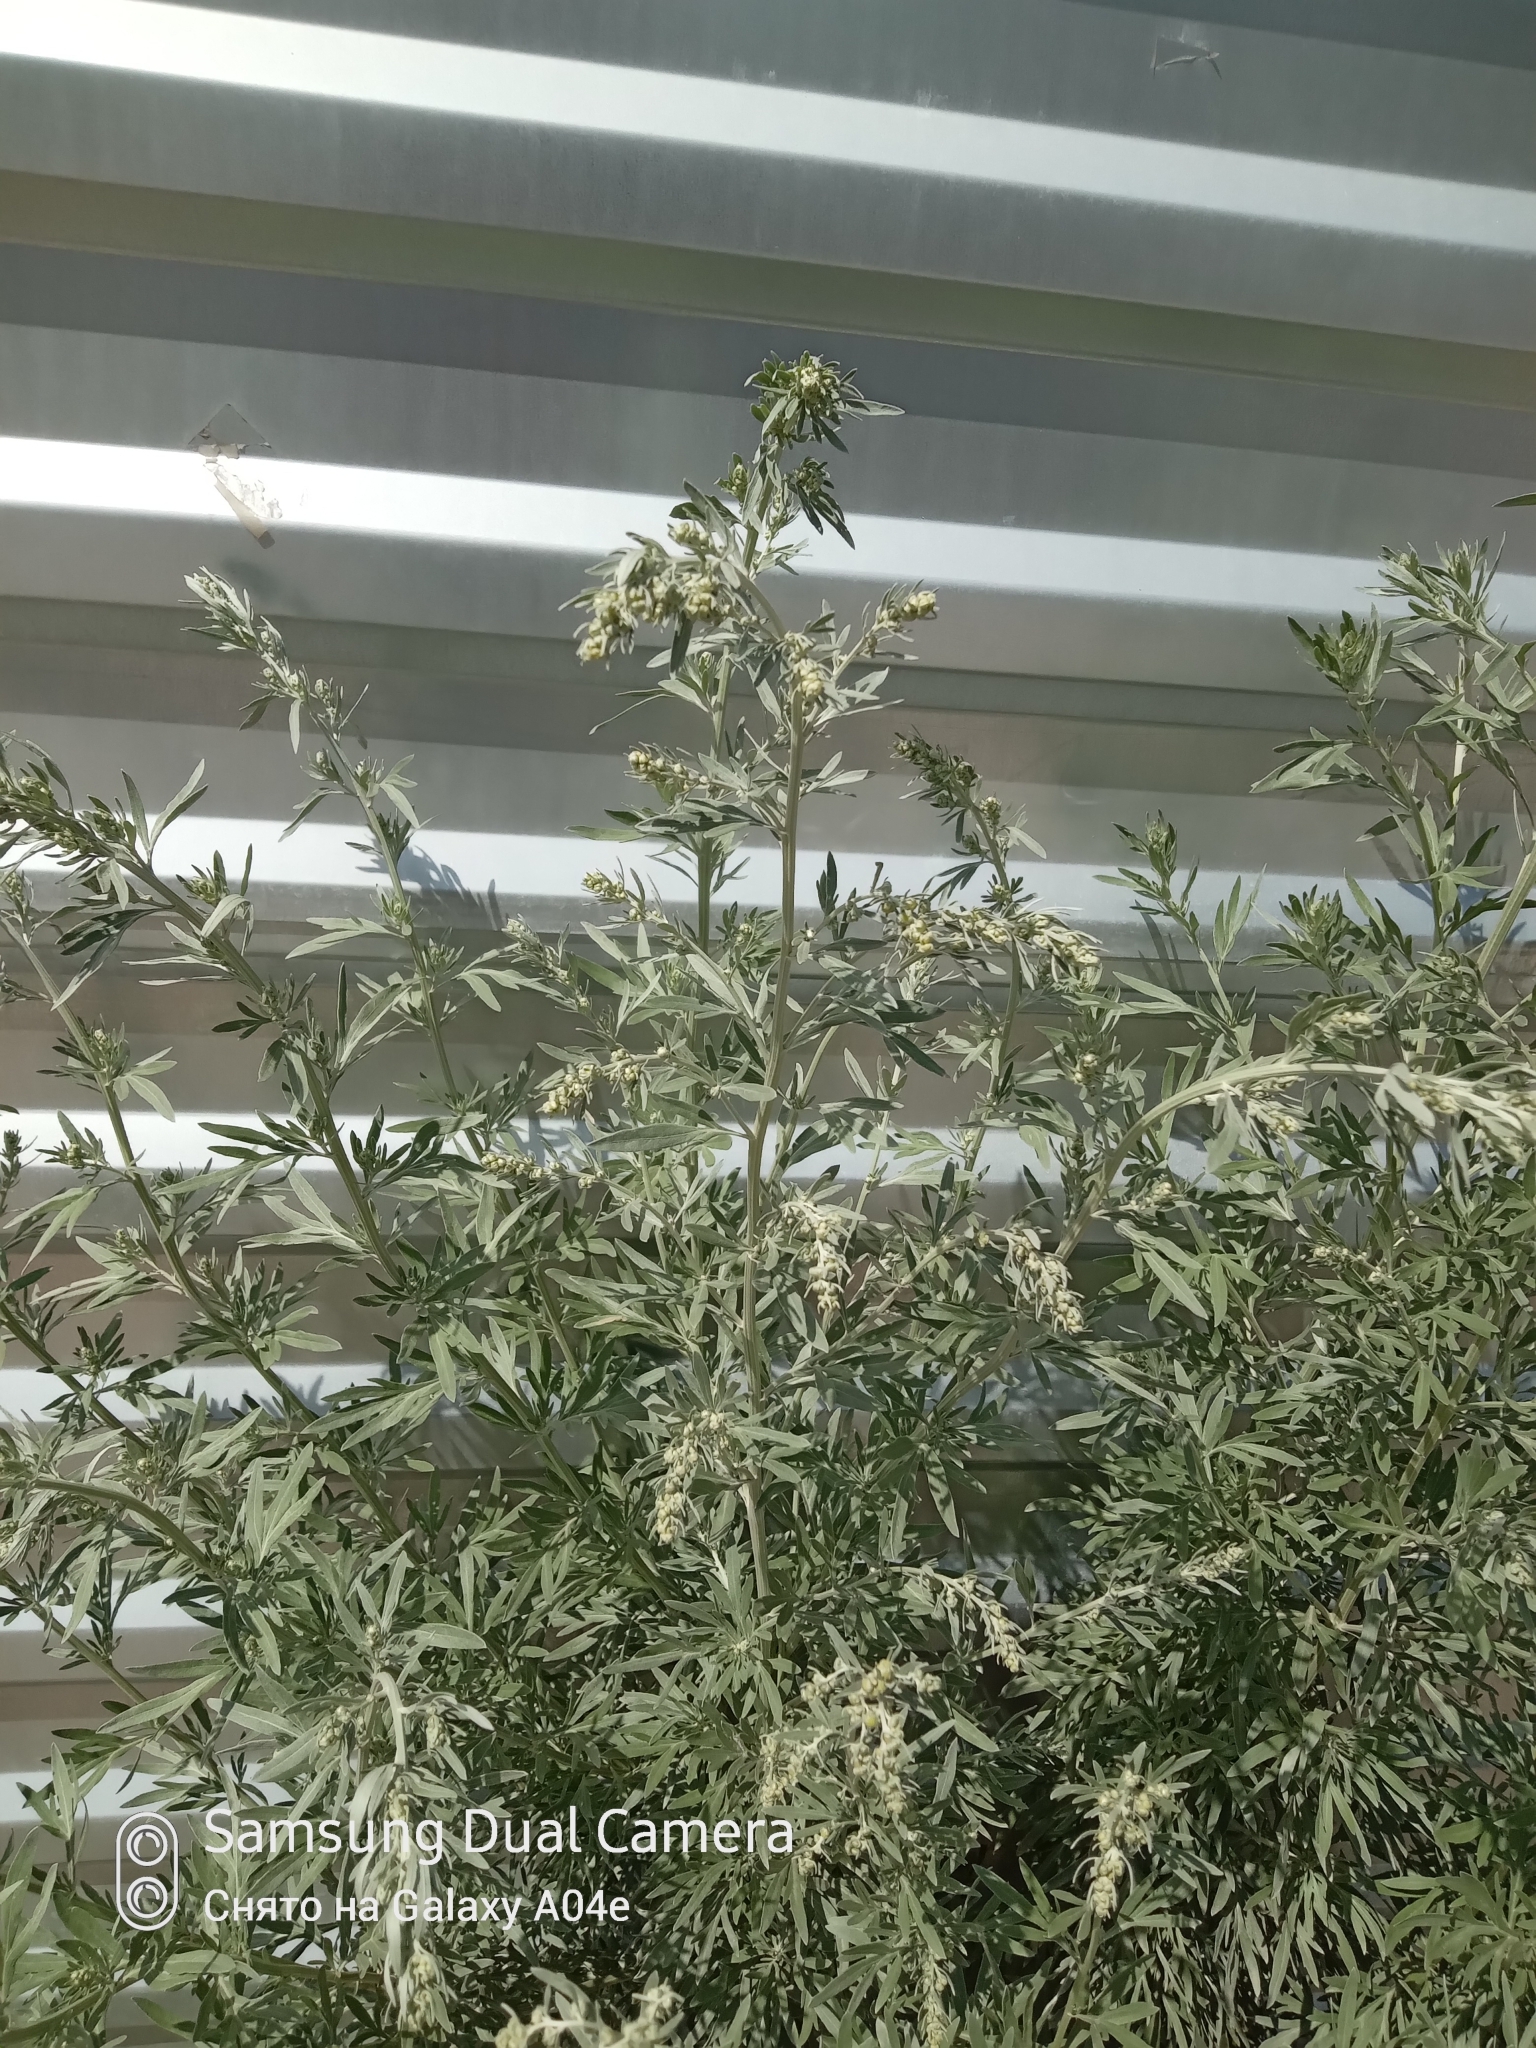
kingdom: Plantae
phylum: Tracheophyta
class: Magnoliopsida
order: Asterales
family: Asteraceae
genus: Artemisia
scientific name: Artemisia absinthium
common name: Wormwood
